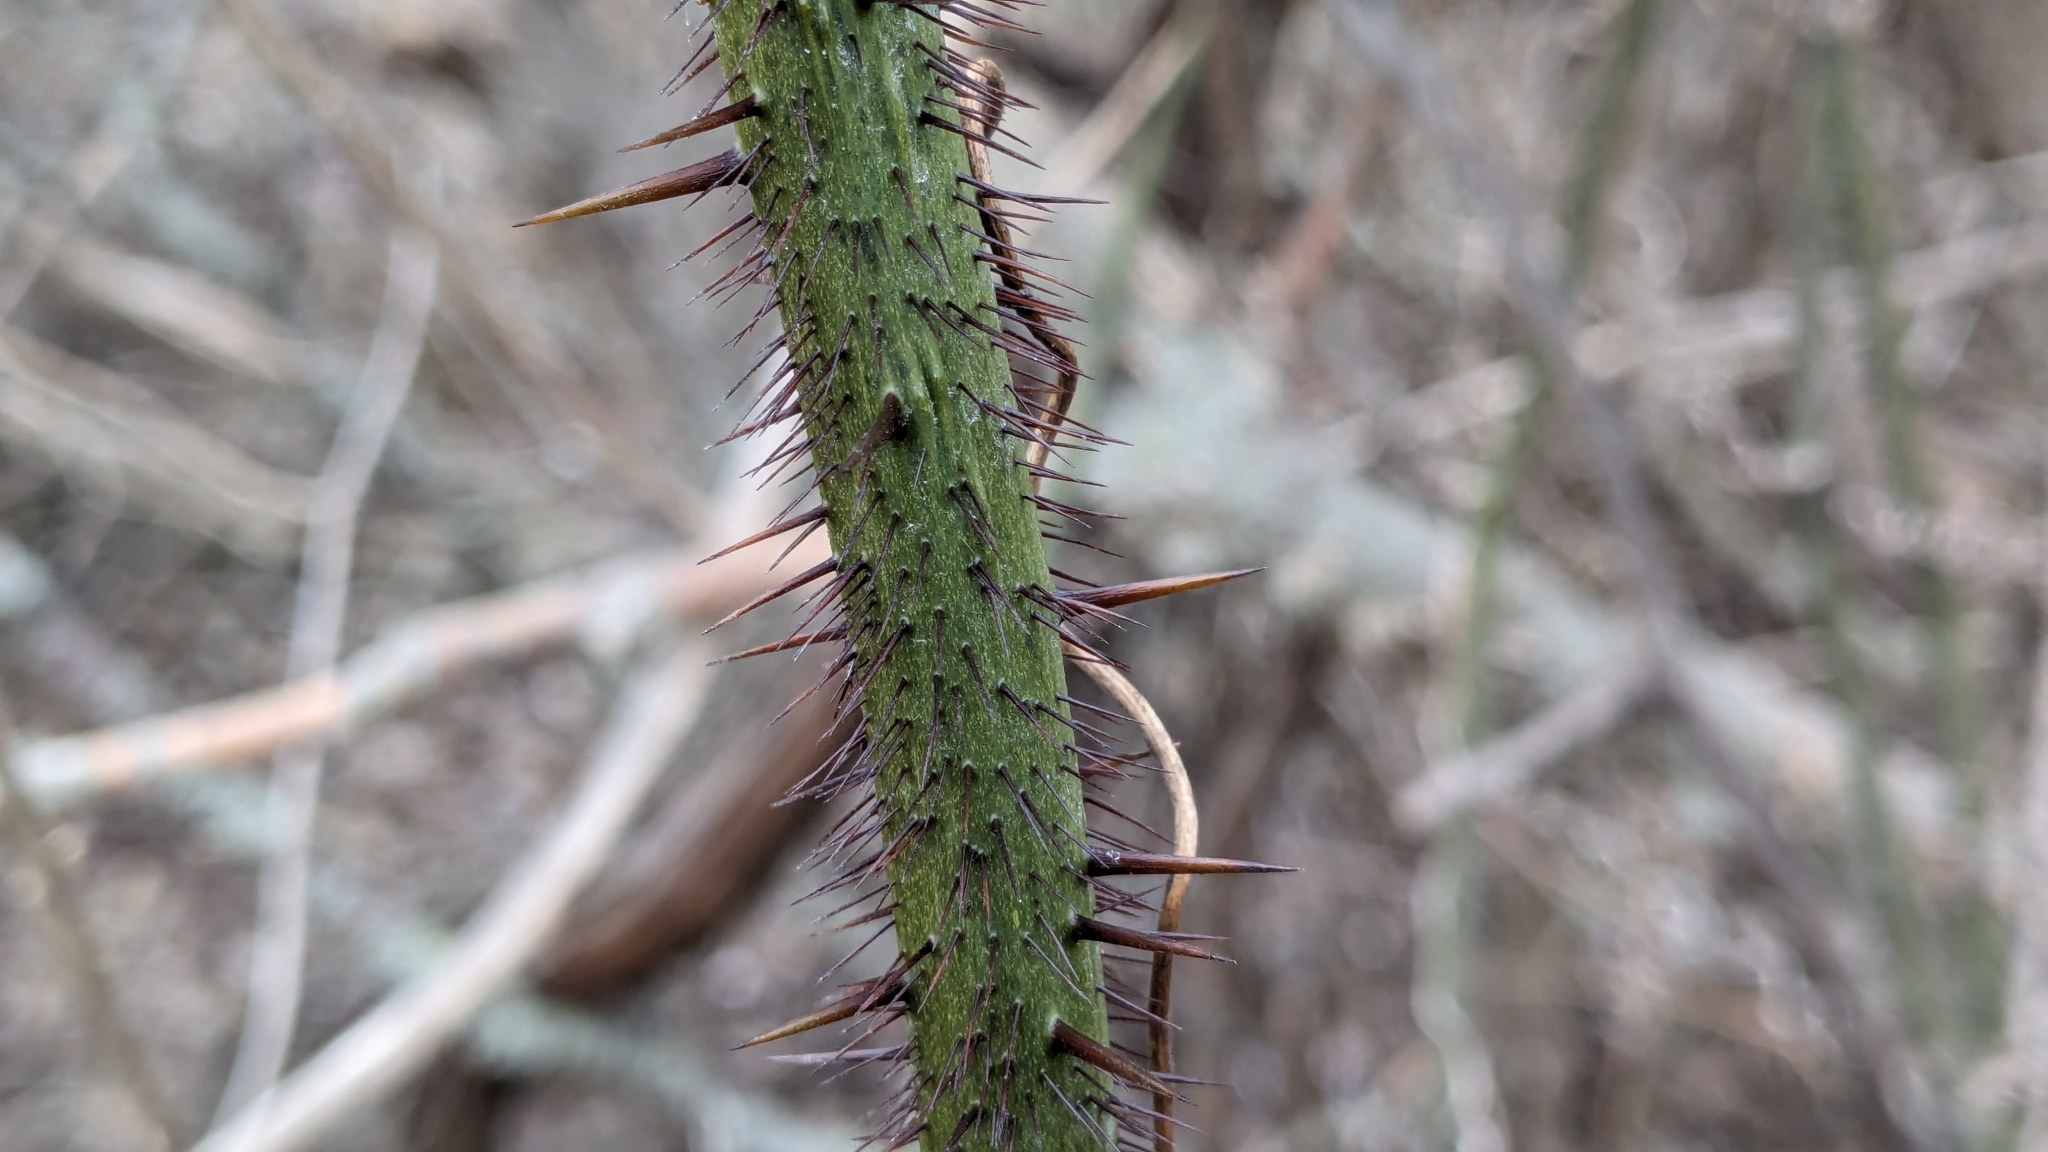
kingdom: Plantae
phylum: Tracheophyta
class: Liliopsida
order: Liliales
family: Smilacaceae
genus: Smilax
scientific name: Smilax tamnoides
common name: Hellfetter
